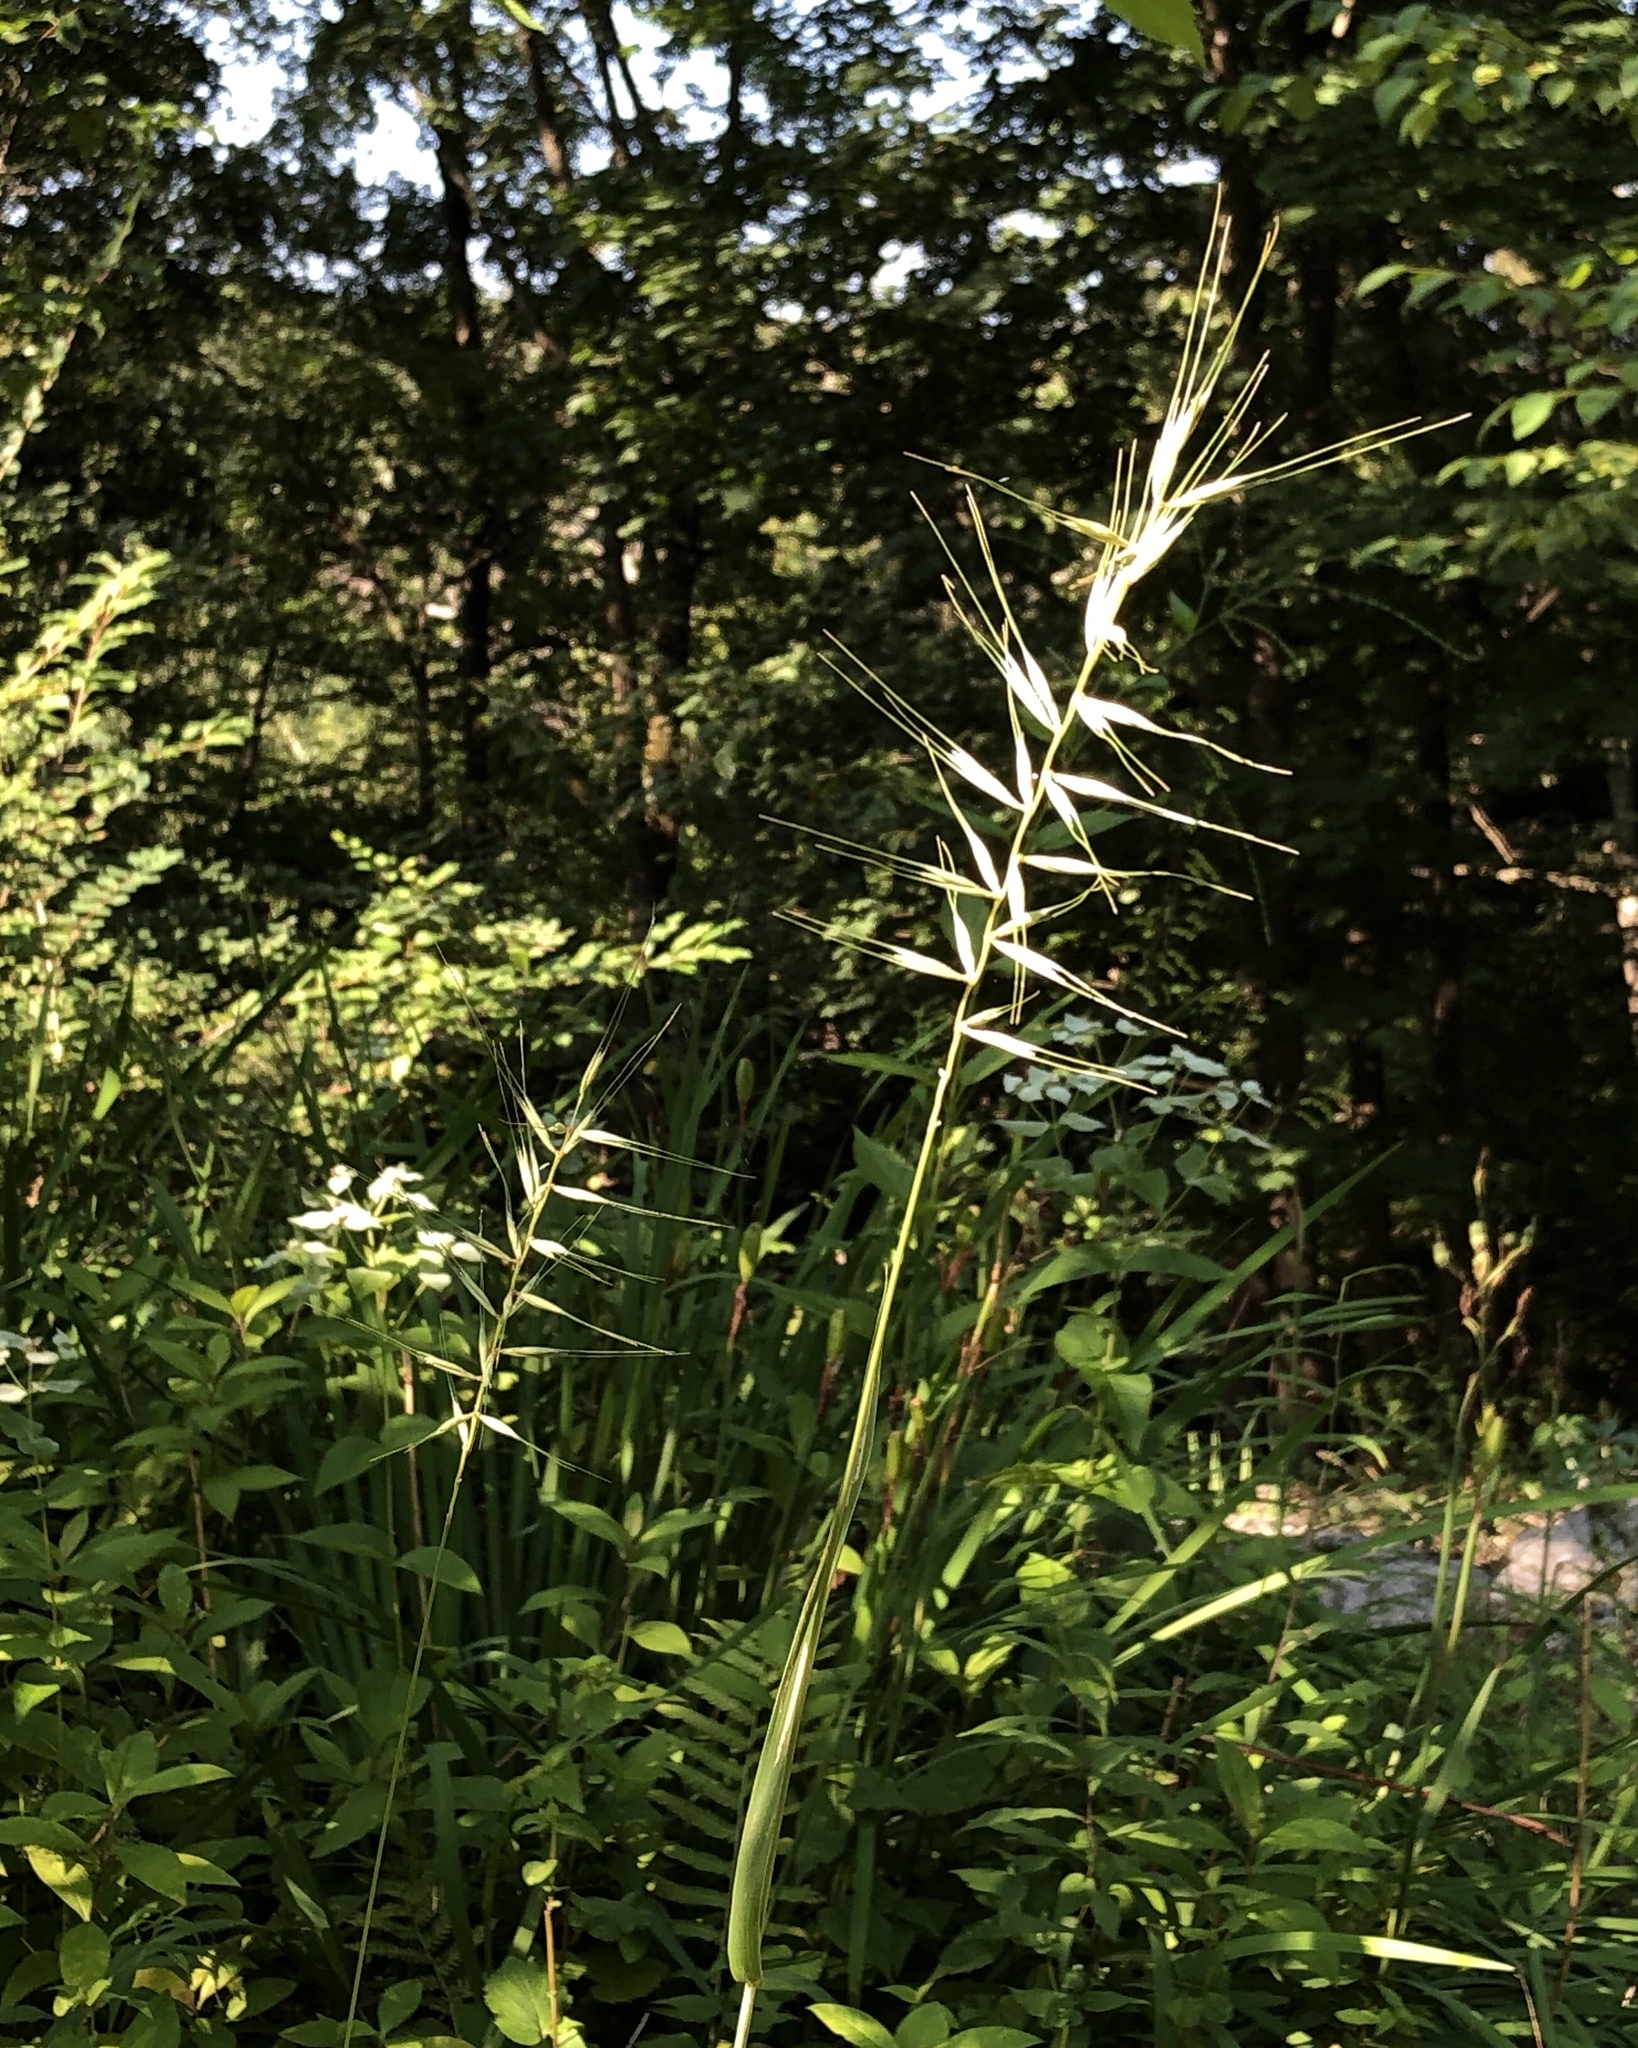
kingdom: Plantae
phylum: Tracheophyta
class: Liliopsida
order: Poales
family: Poaceae
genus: Elymus
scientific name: Elymus hystrix
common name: Bottlebrush grass
